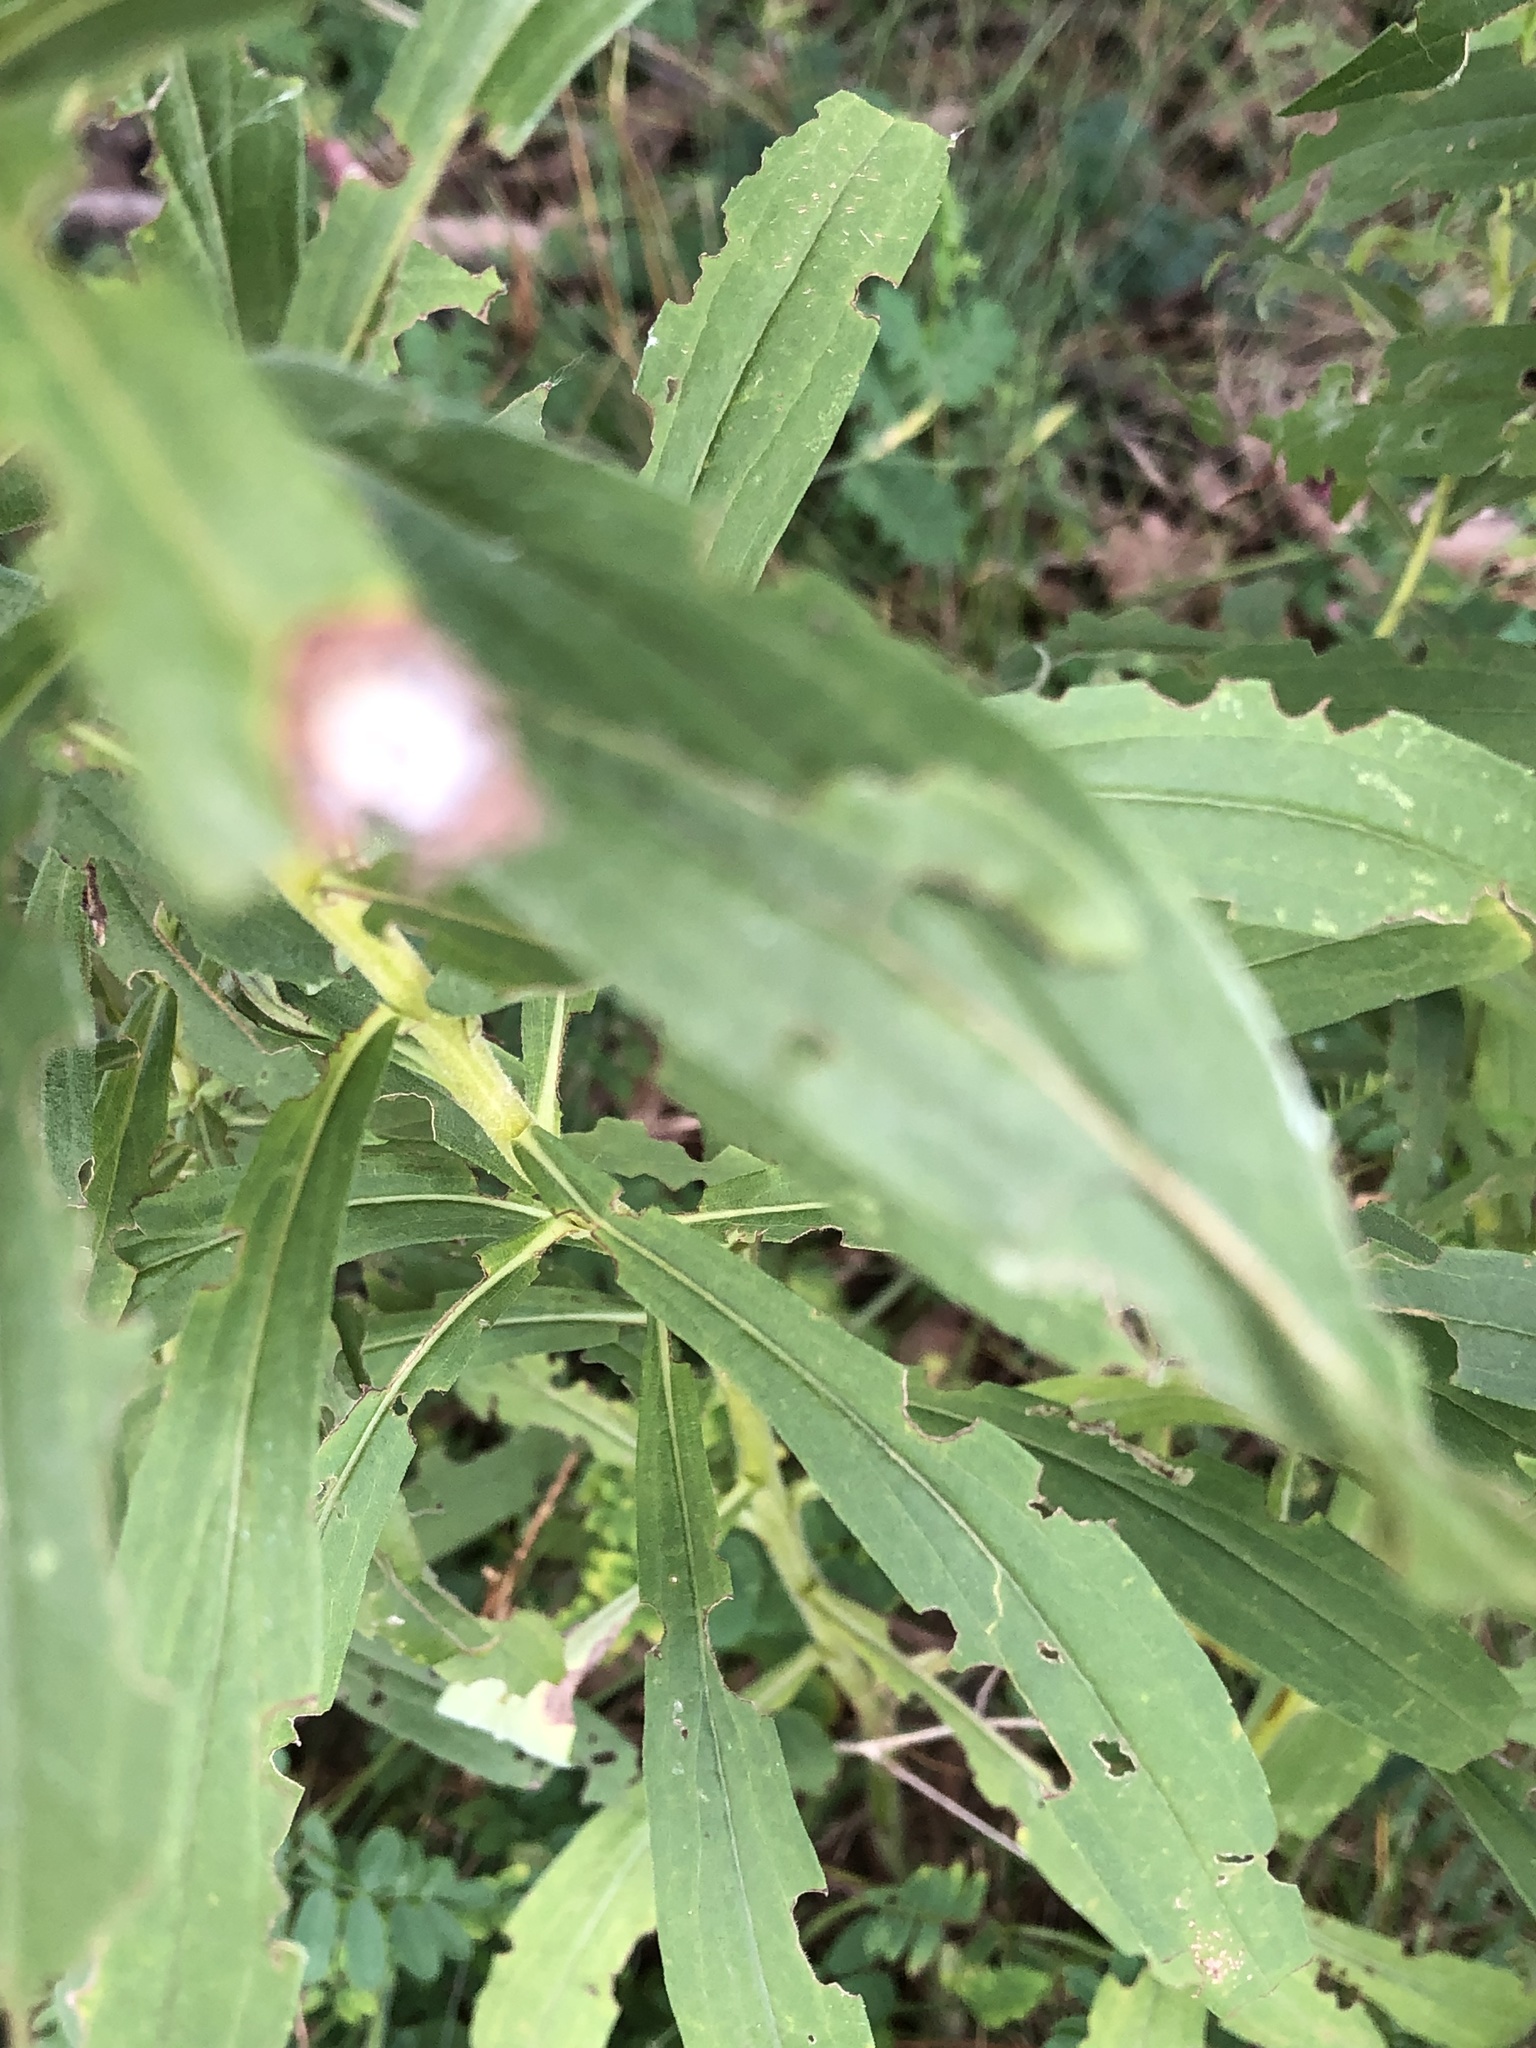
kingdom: Animalia
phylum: Arthropoda
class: Insecta
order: Diptera
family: Cecidomyiidae
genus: Asteromyia
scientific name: Asteromyia carbonifera
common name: Carbonifera goldenrod gall midge
